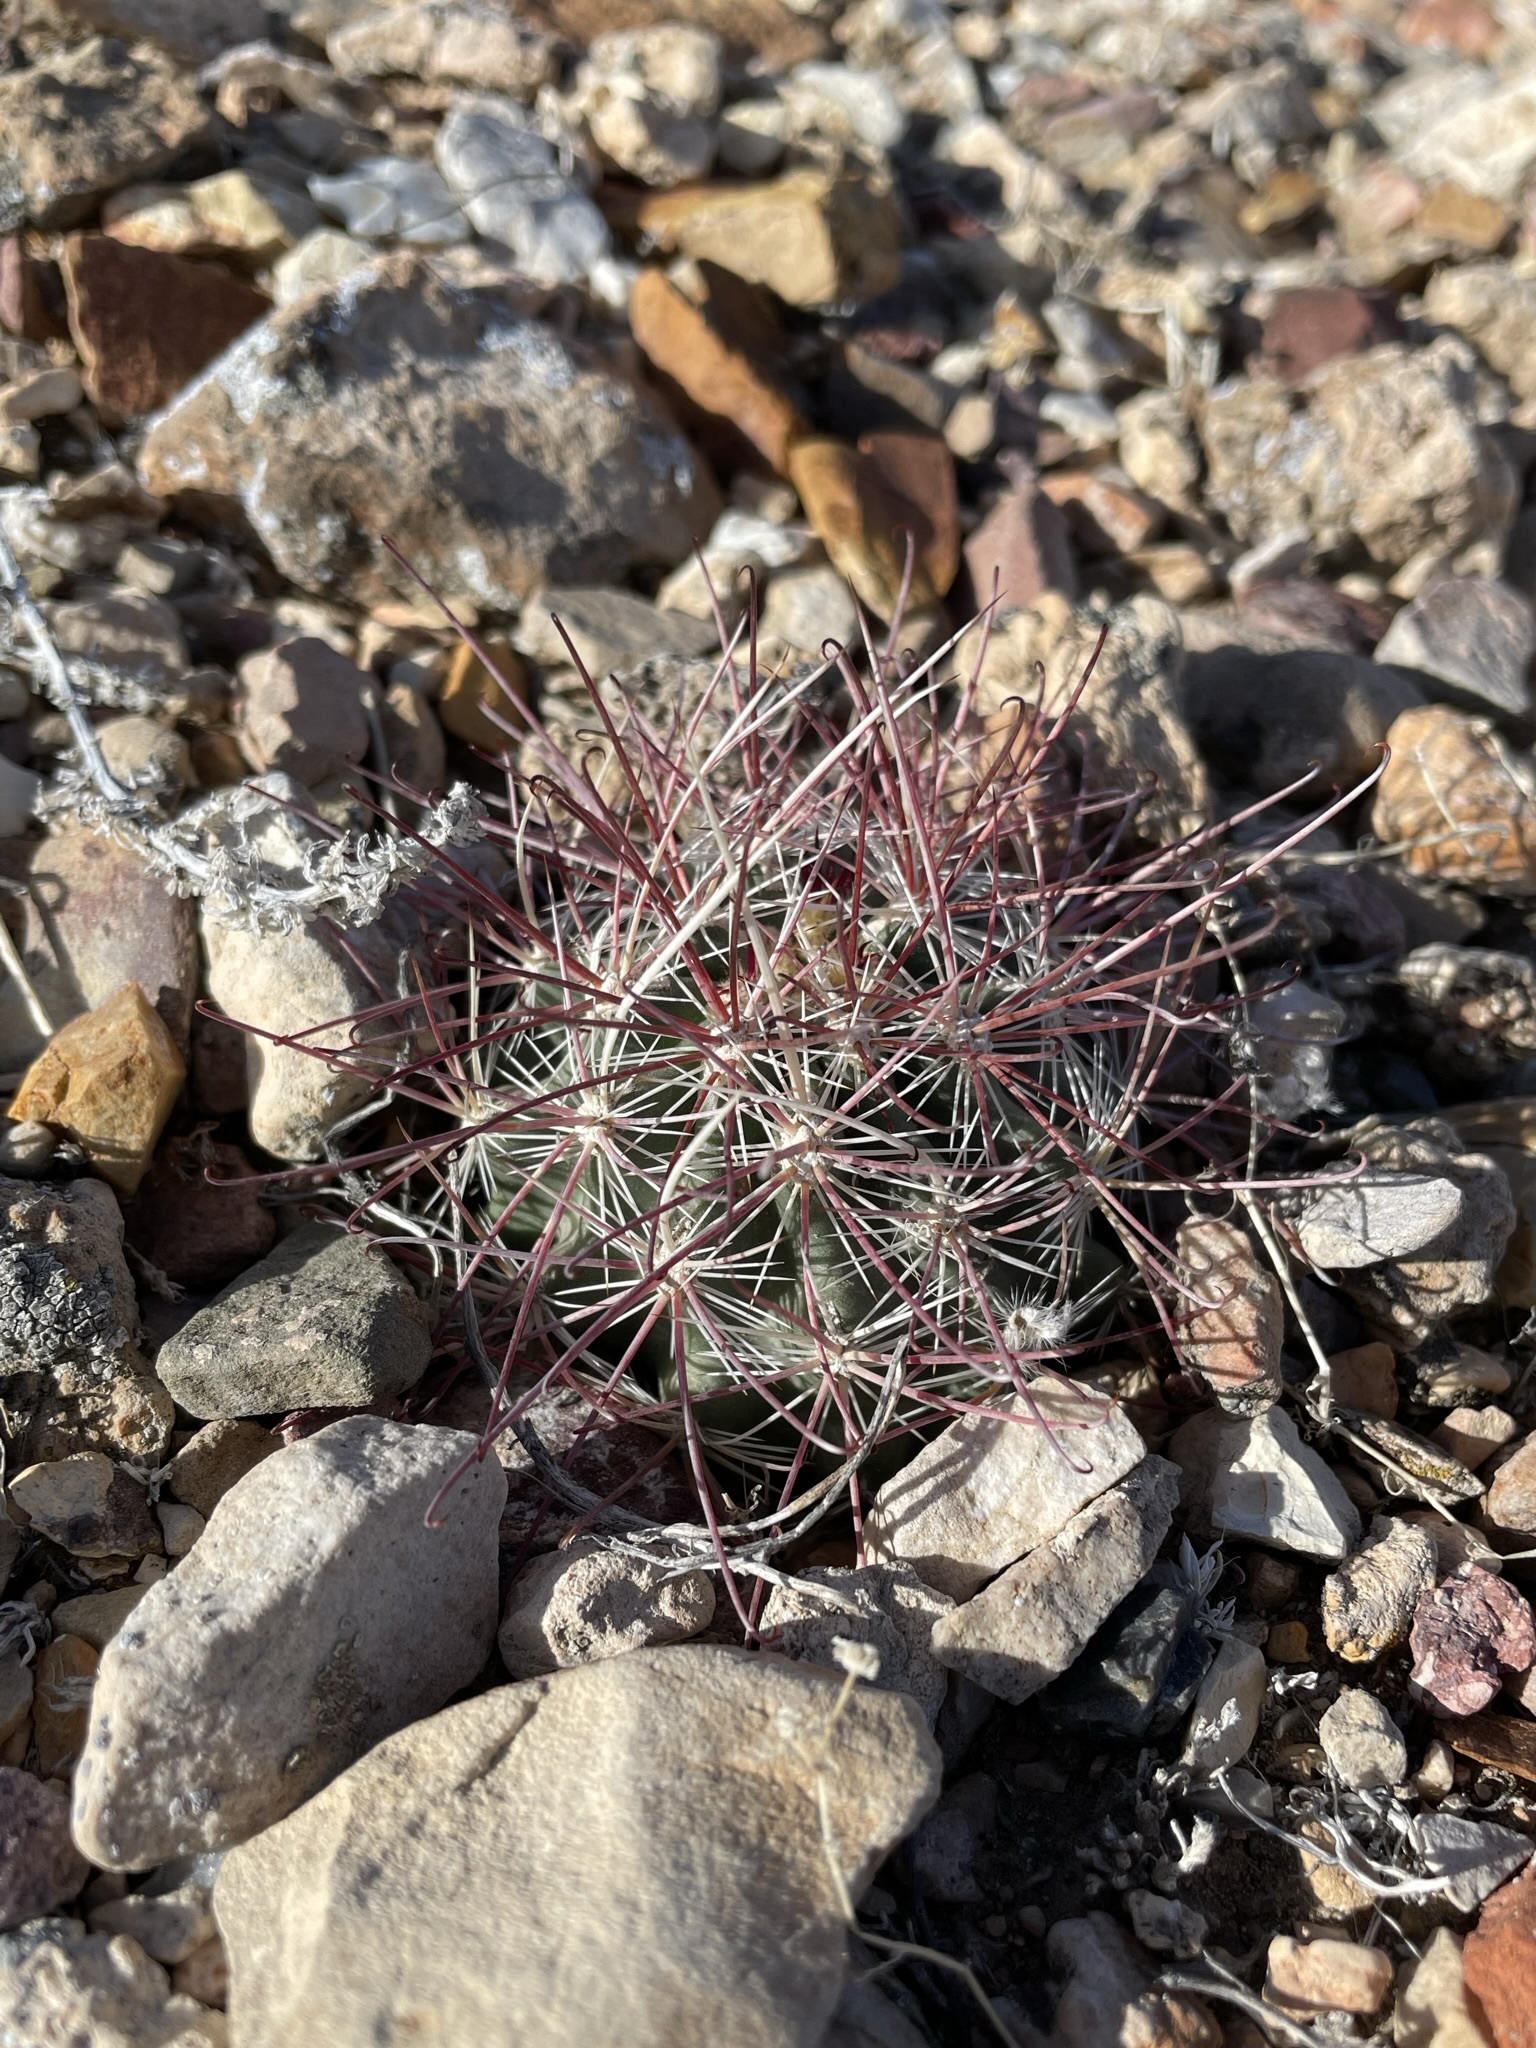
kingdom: Plantae
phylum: Tracheophyta
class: Magnoliopsida
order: Caryophyllales
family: Cactaceae
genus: Sclerocactus
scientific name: Sclerocactus polyancistrus
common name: Mohave fishhook cactus
